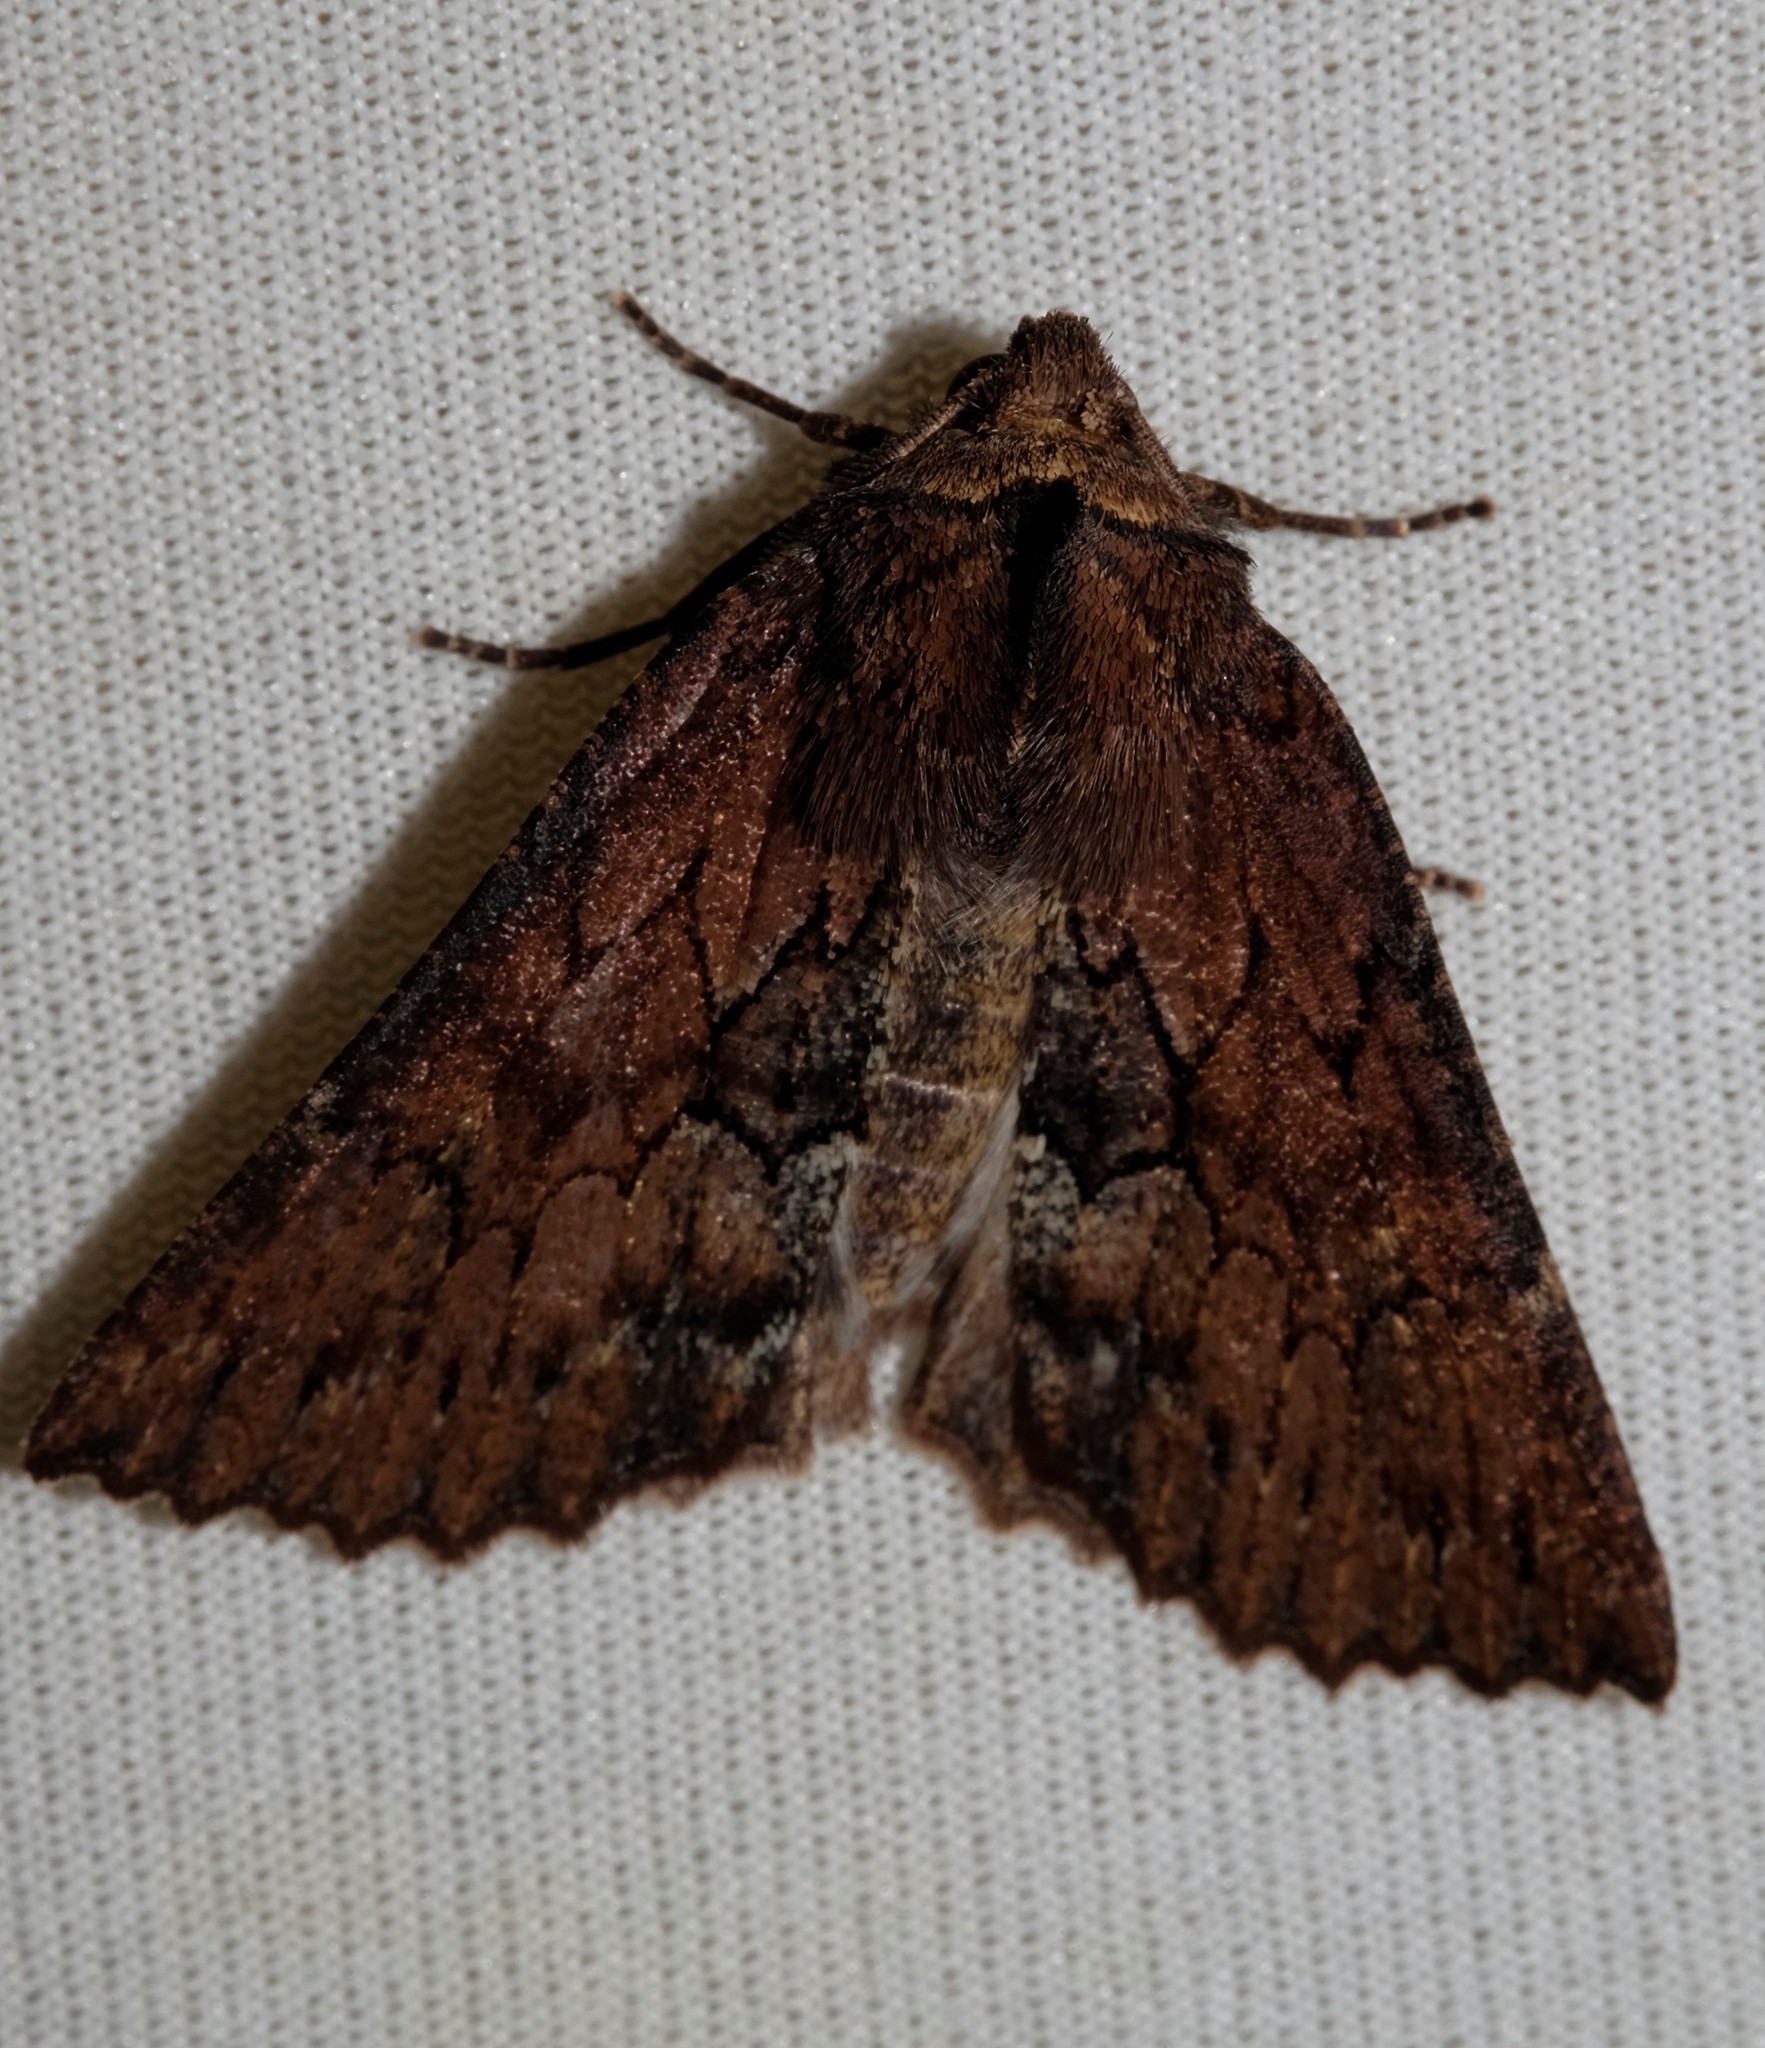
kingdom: Animalia
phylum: Arthropoda
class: Insecta
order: Lepidoptera
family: Geometridae
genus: Nisista
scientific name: Nisista serrata
